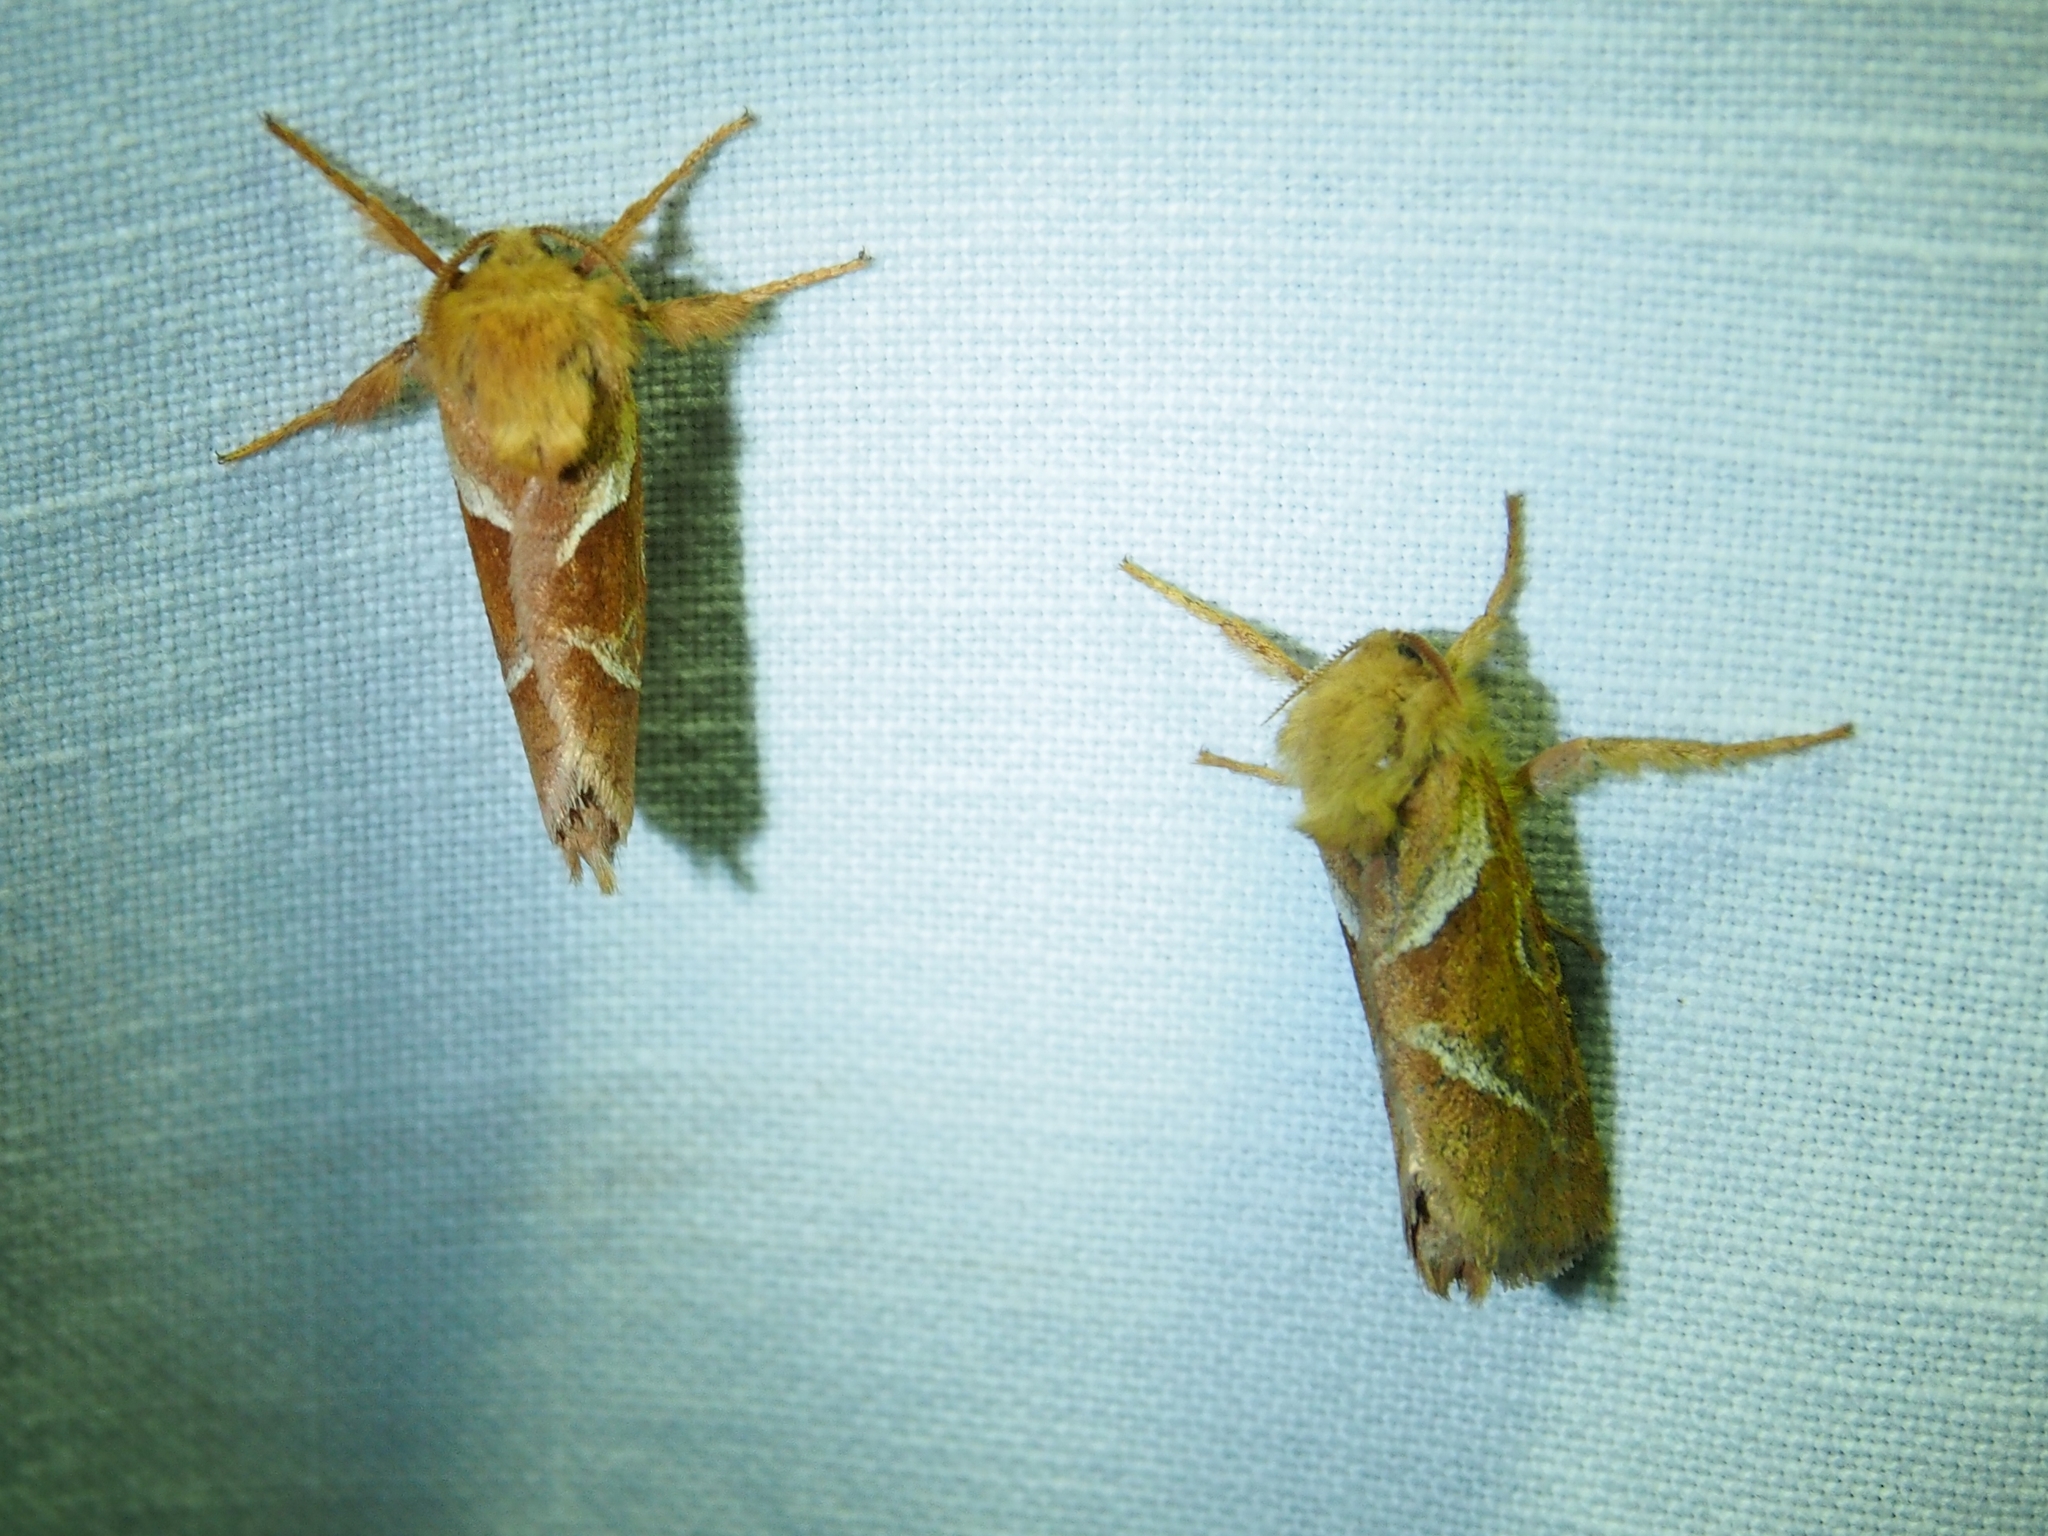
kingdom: Animalia
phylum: Arthropoda
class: Insecta
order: Lepidoptera
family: Hepialidae
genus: Triodia
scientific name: Triodia sylvina
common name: Orange swift
